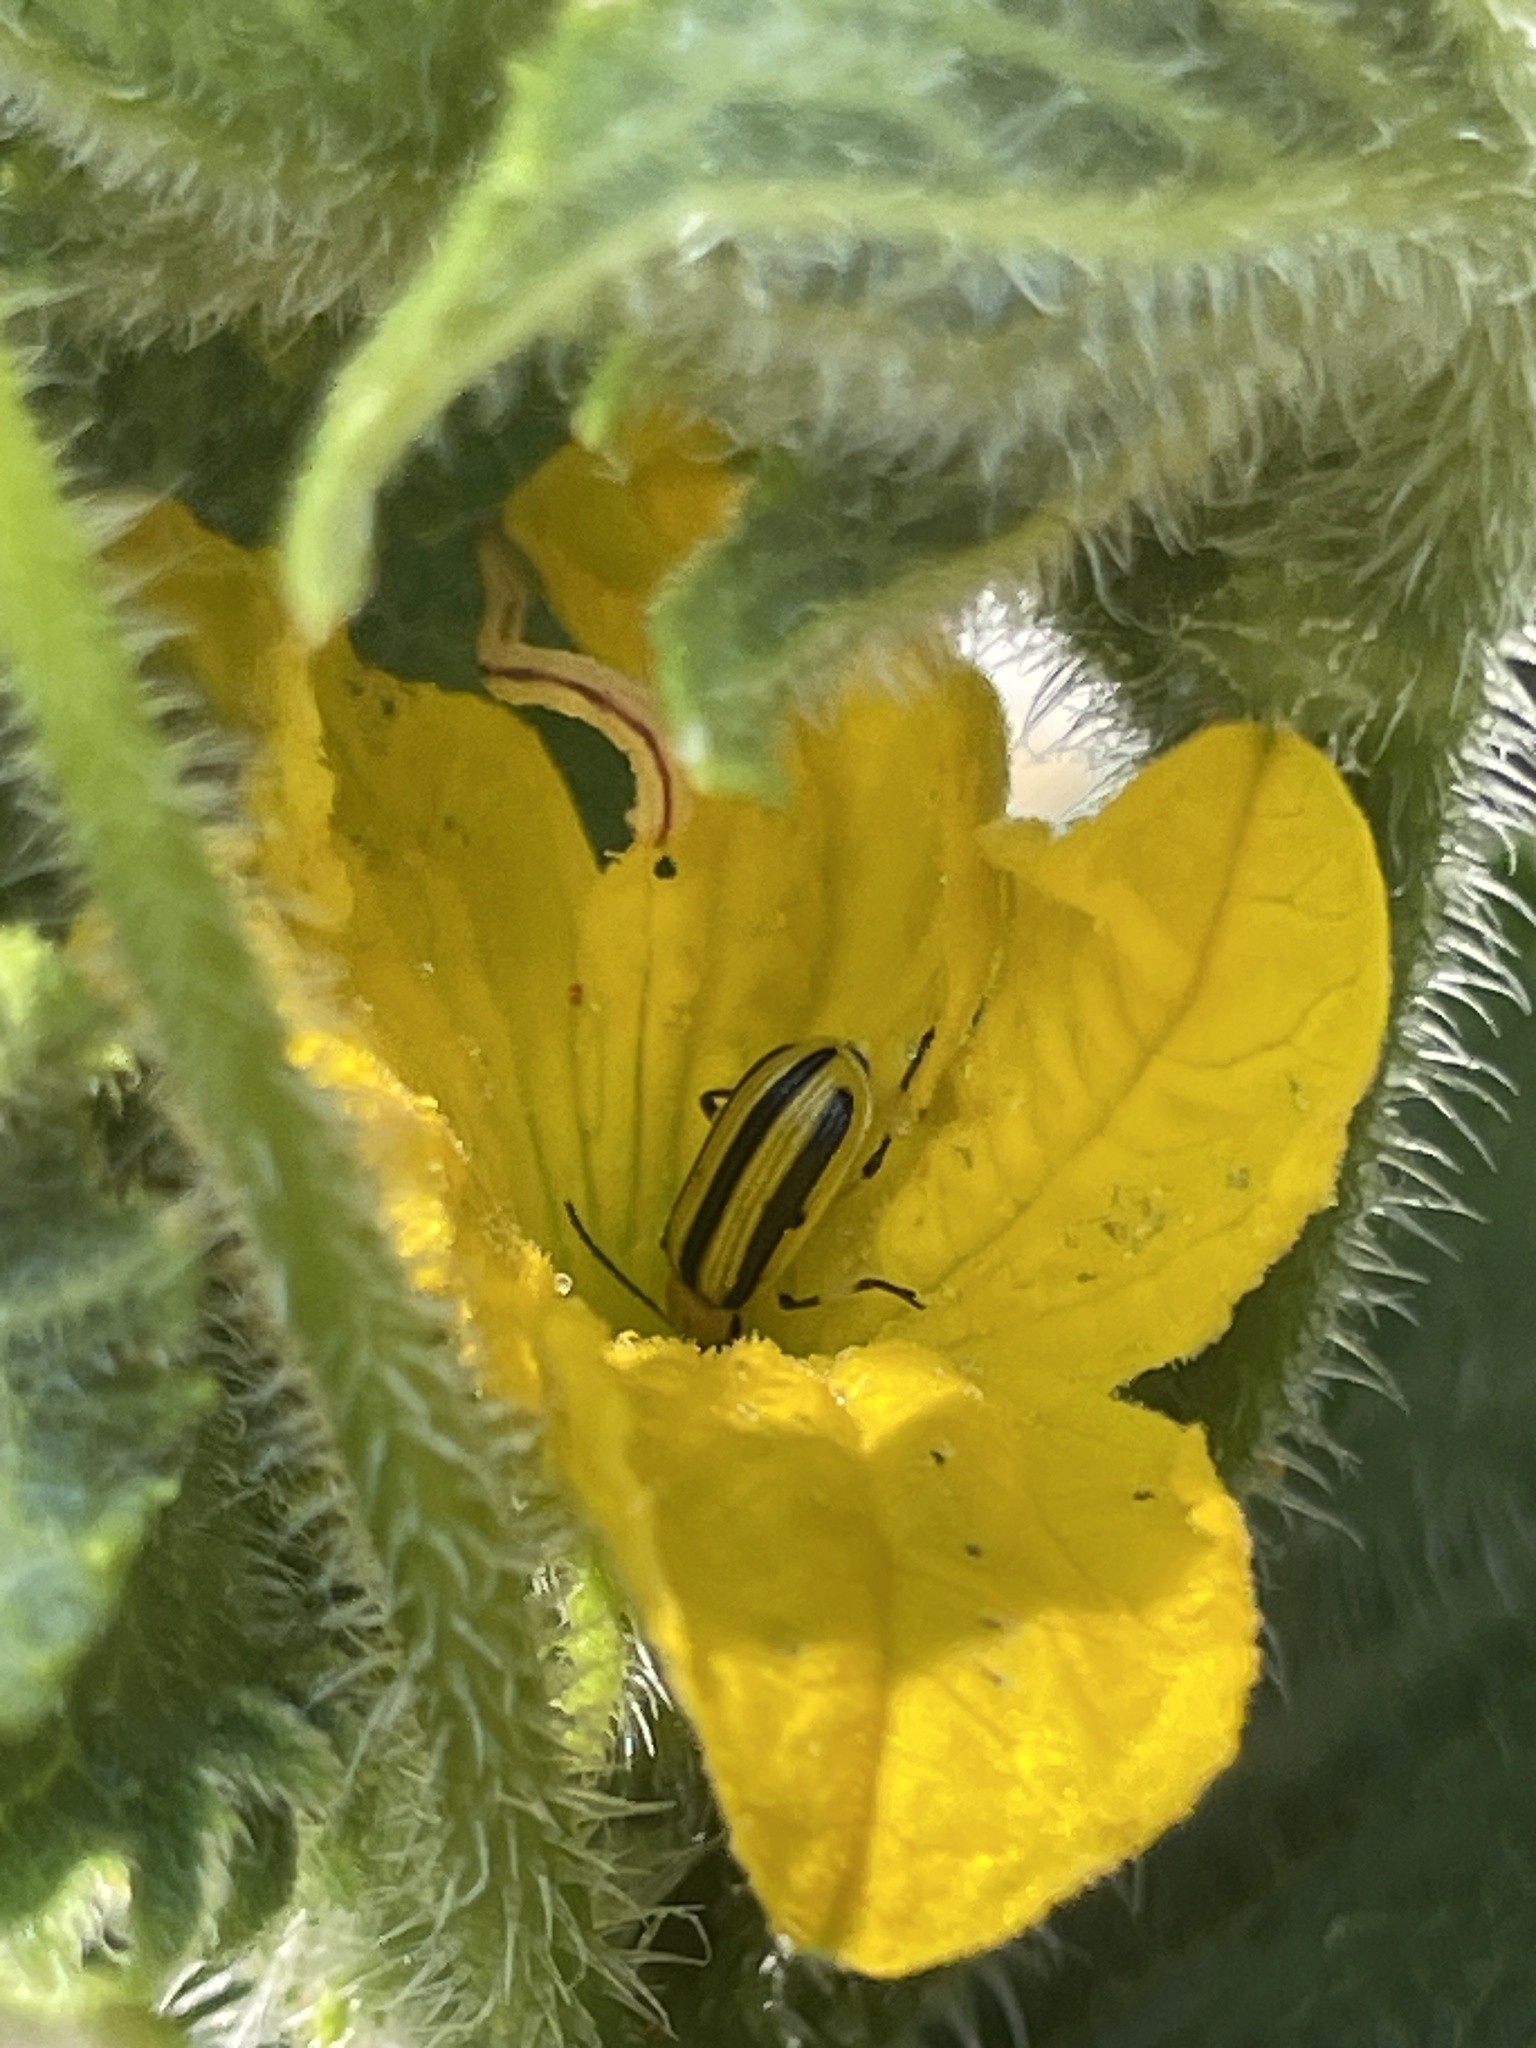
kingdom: Animalia
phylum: Arthropoda
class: Insecta
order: Coleoptera
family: Chrysomelidae
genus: Acalymma
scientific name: Acalymma vittatum
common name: Striped cucumber beetle
